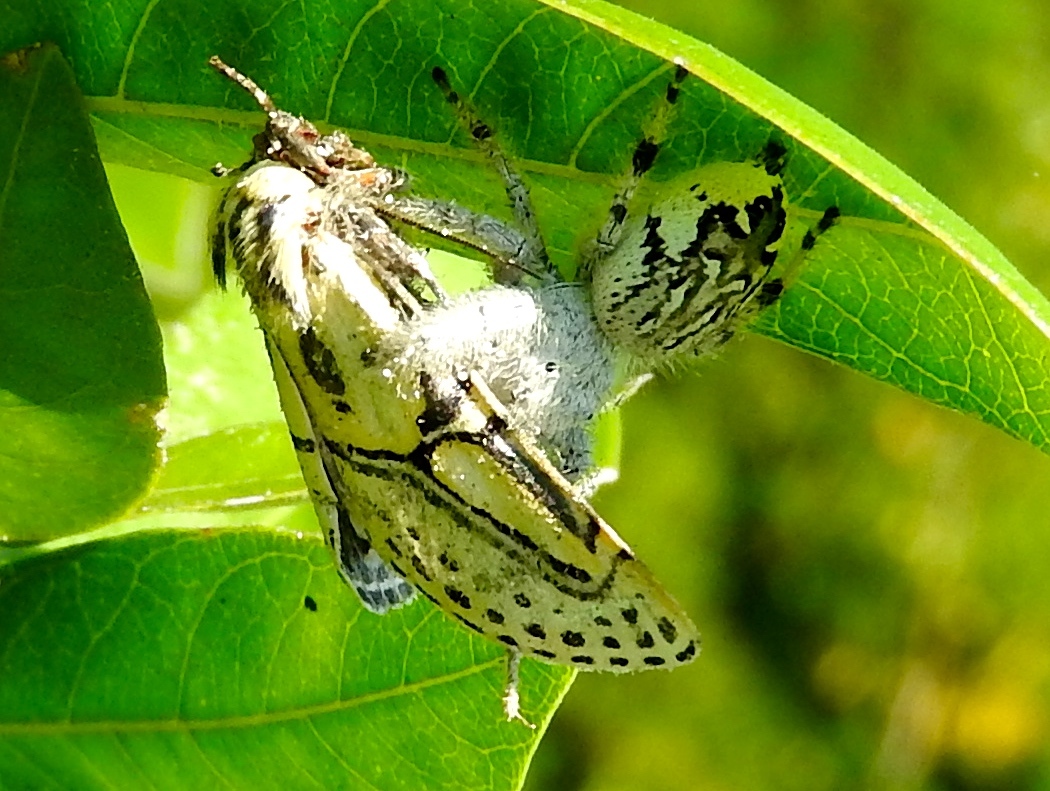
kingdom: Animalia
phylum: Arthropoda
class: Arachnida
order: Araneae
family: Salticidae
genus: Paraphidippus
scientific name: Paraphidippus fartilis
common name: Jumping spiders
